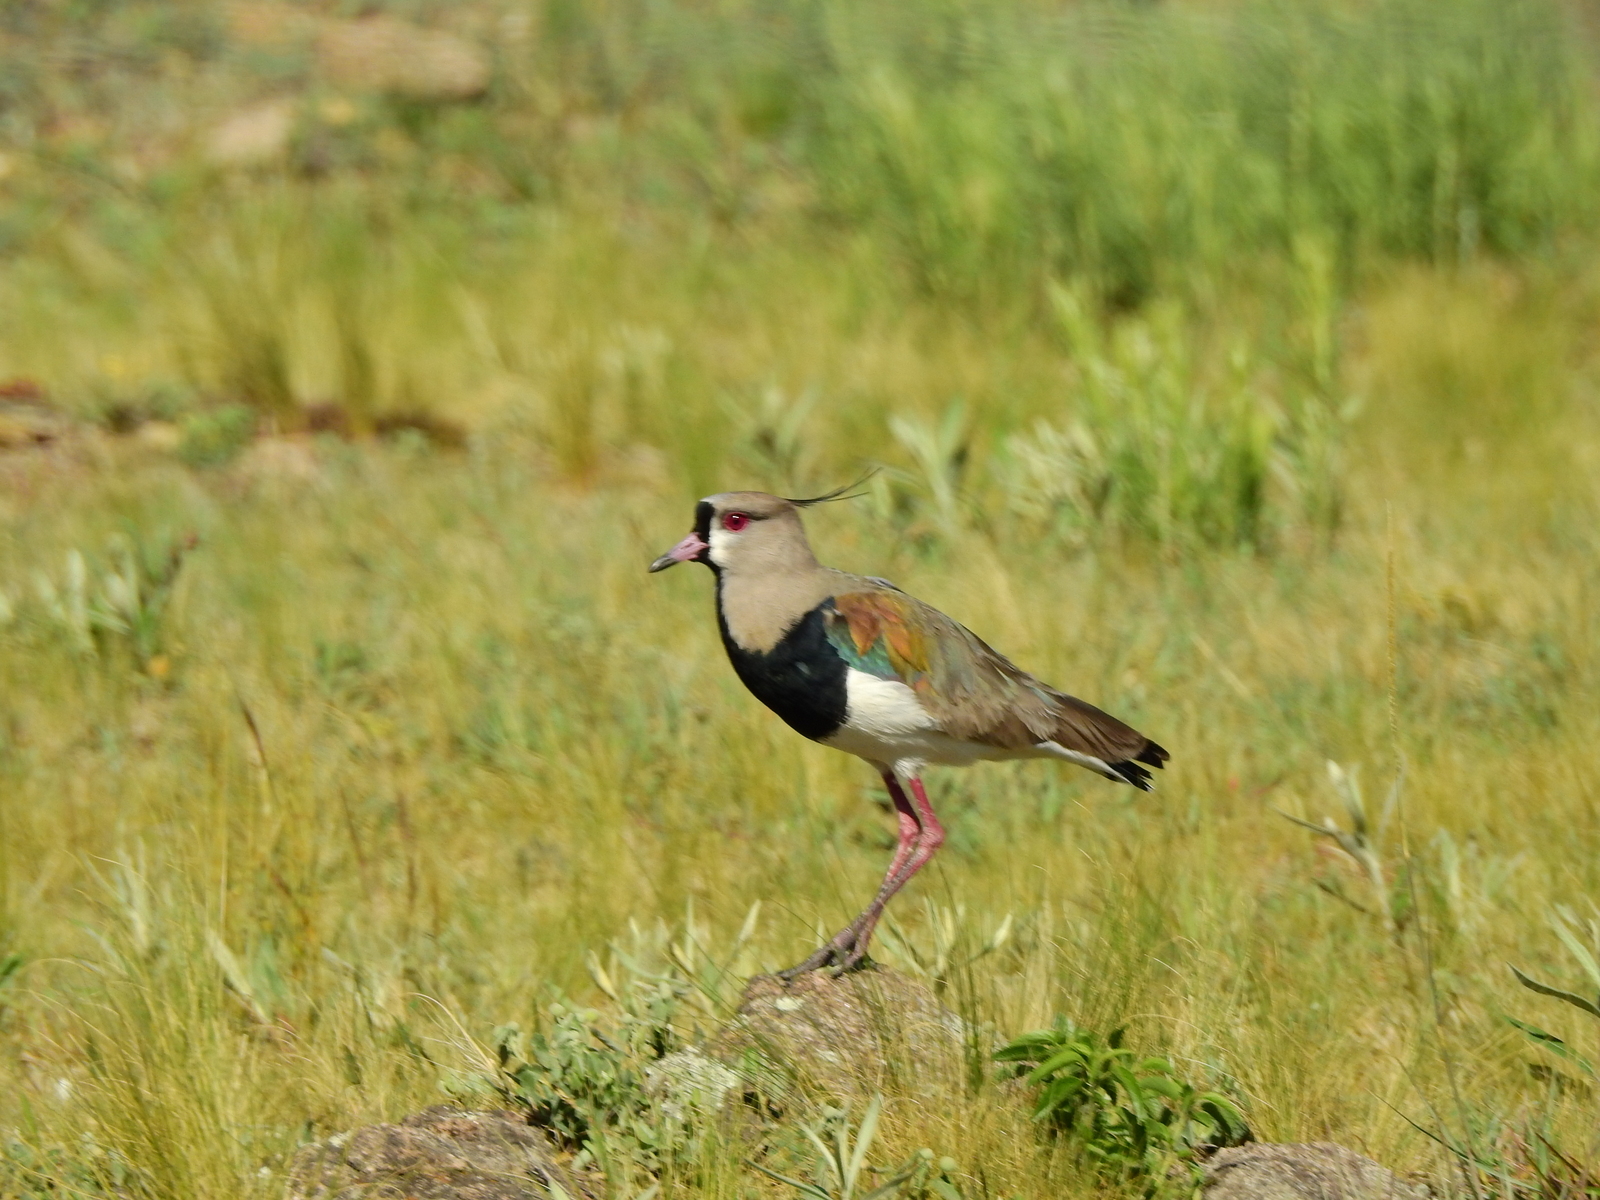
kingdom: Animalia
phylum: Chordata
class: Aves
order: Charadriiformes
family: Charadriidae
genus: Vanellus
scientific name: Vanellus chilensis
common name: Southern lapwing
